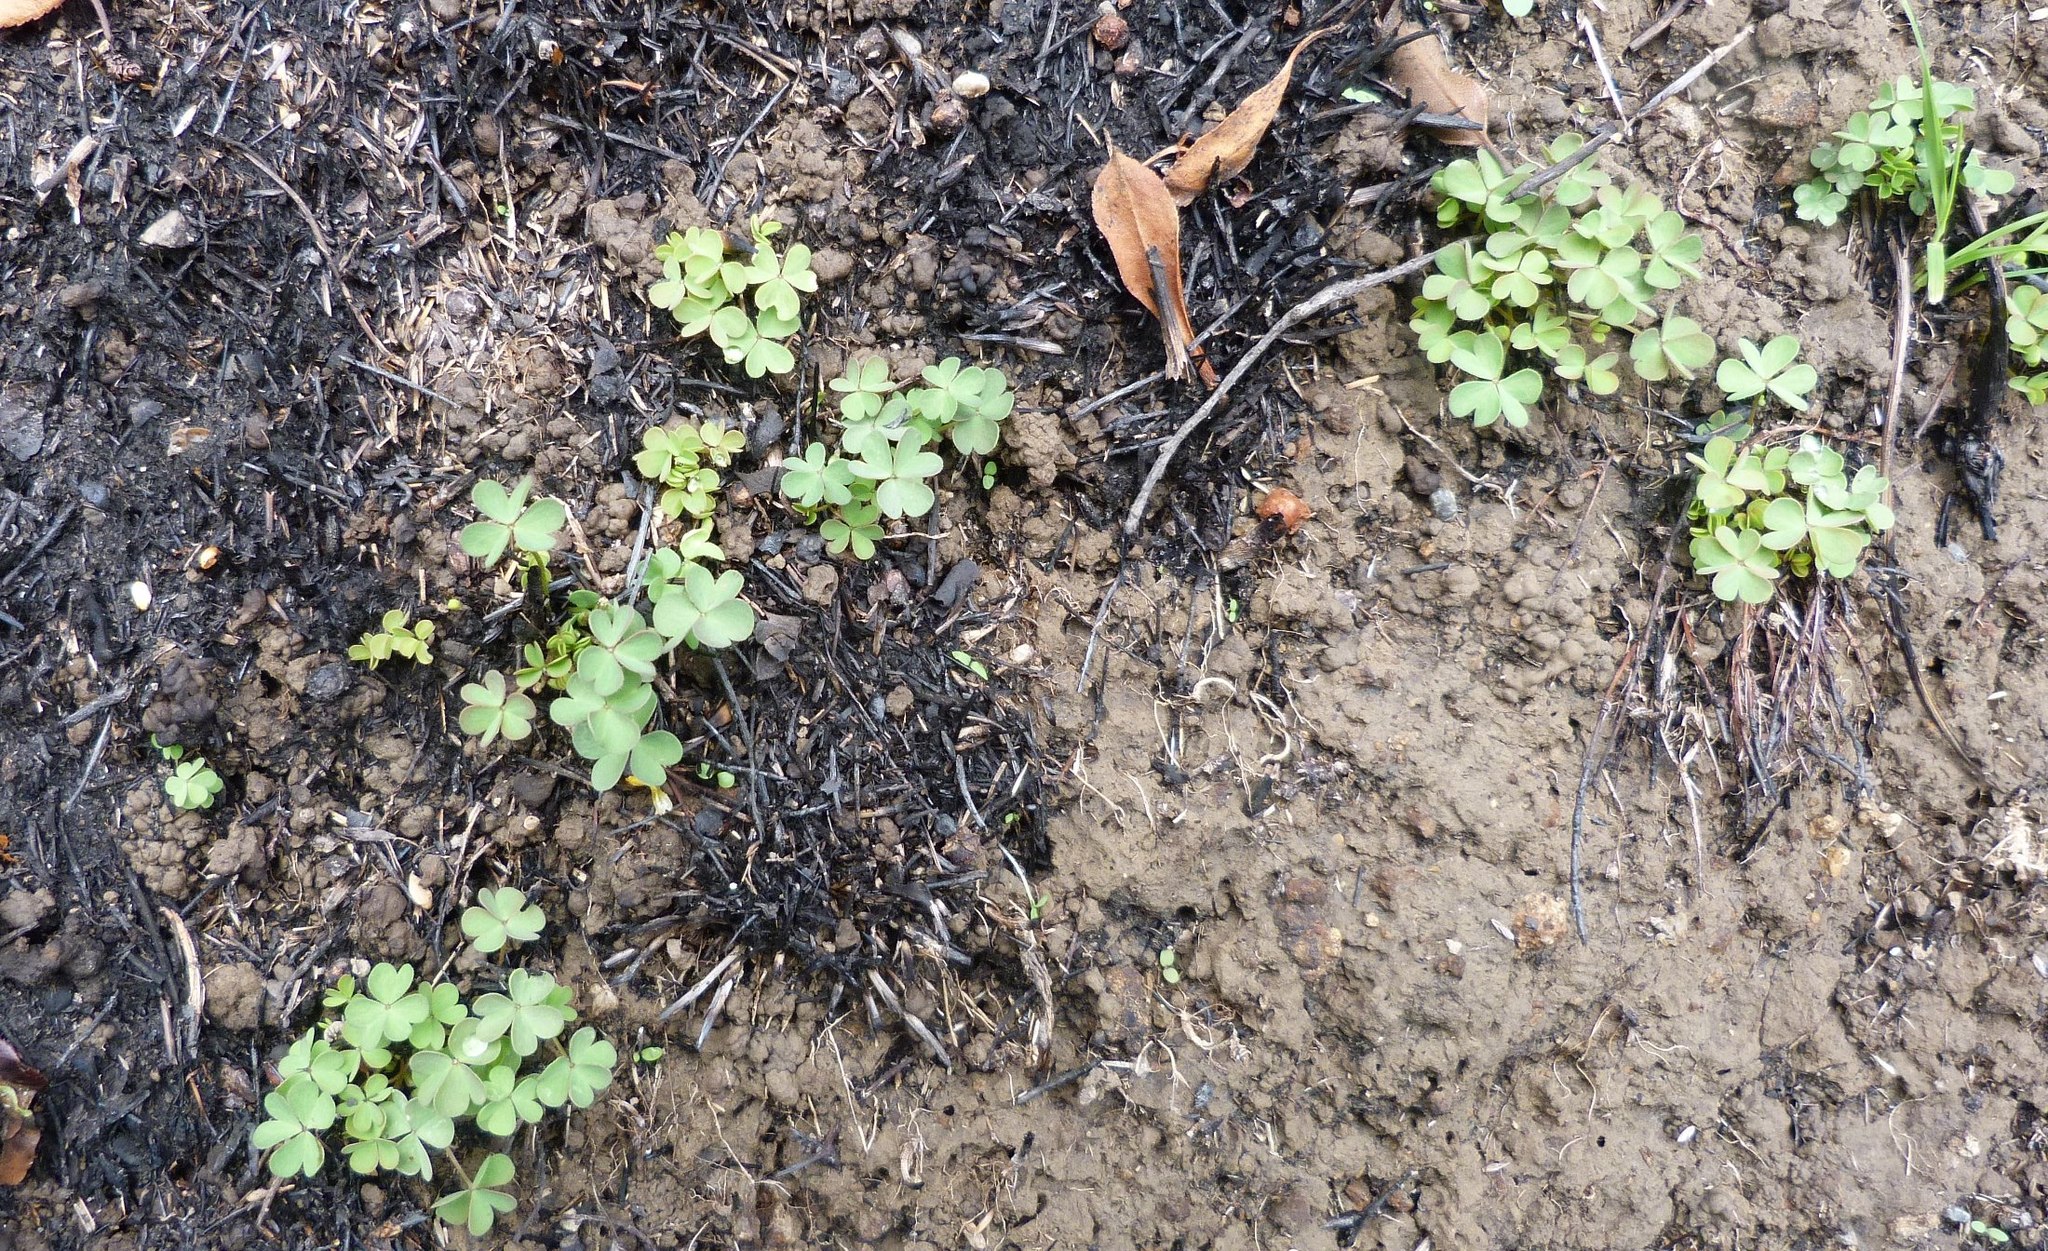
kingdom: Plantae
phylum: Tracheophyta
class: Magnoliopsida
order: Oxalidales
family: Oxalidaceae
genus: Oxalis
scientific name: Oxalis exilis
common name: Least yellow-sorrel
